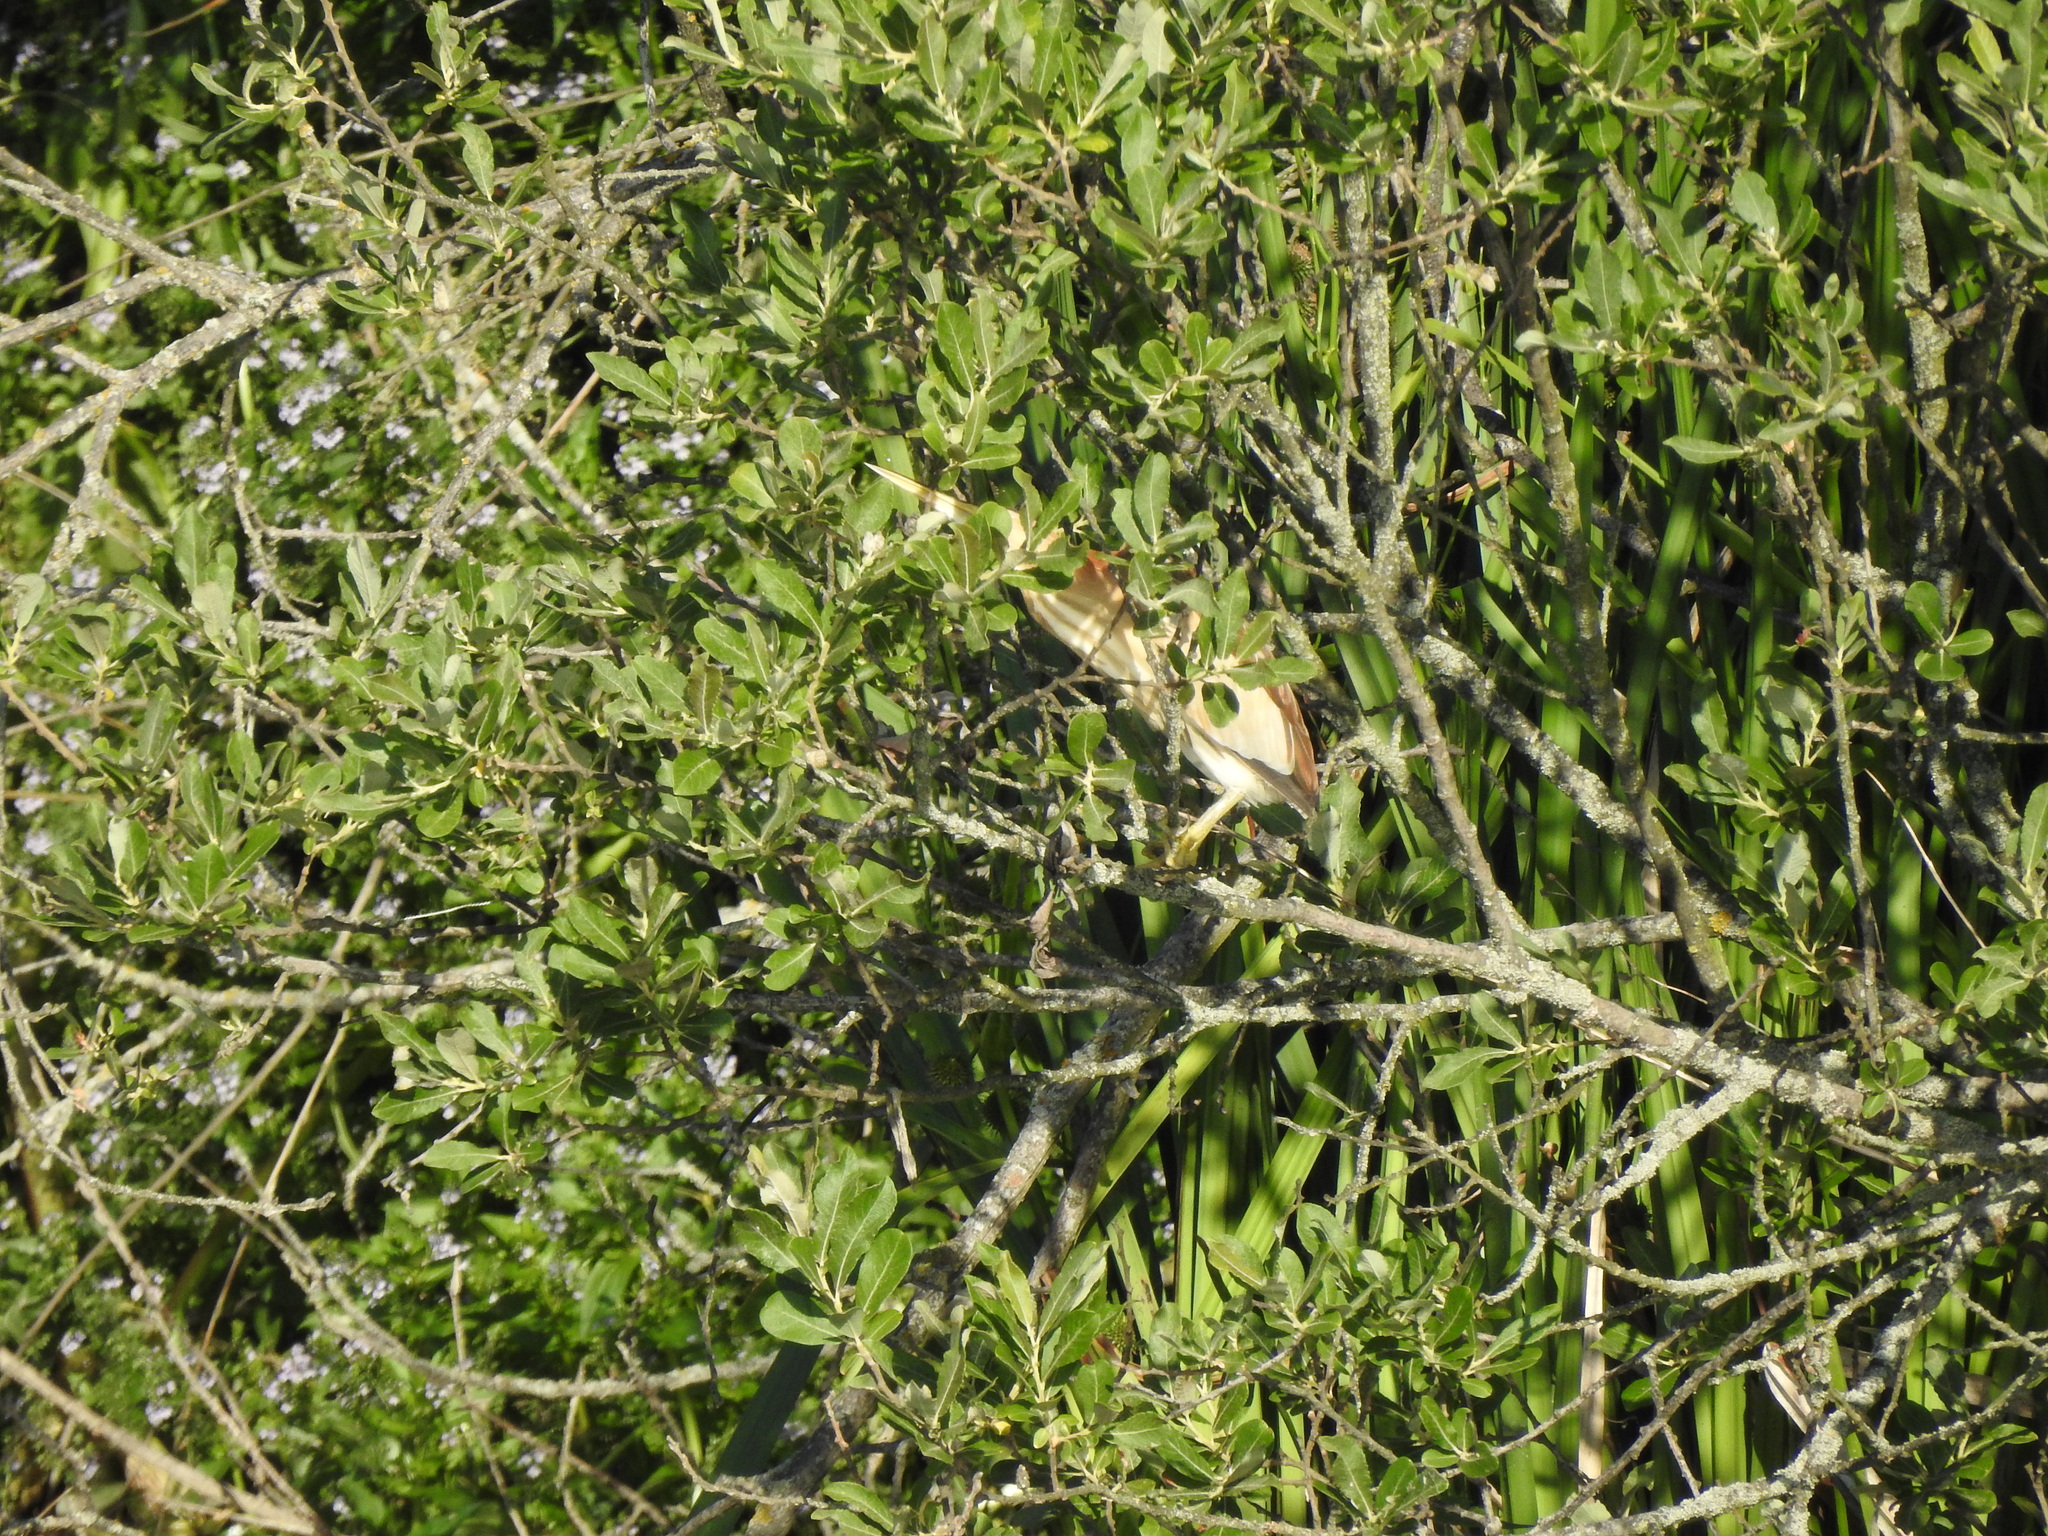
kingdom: Animalia
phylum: Chordata
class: Aves
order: Pelecaniformes
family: Ardeidae
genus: Ixobrychus
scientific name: Ixobrychus minutus
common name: Little bittern
